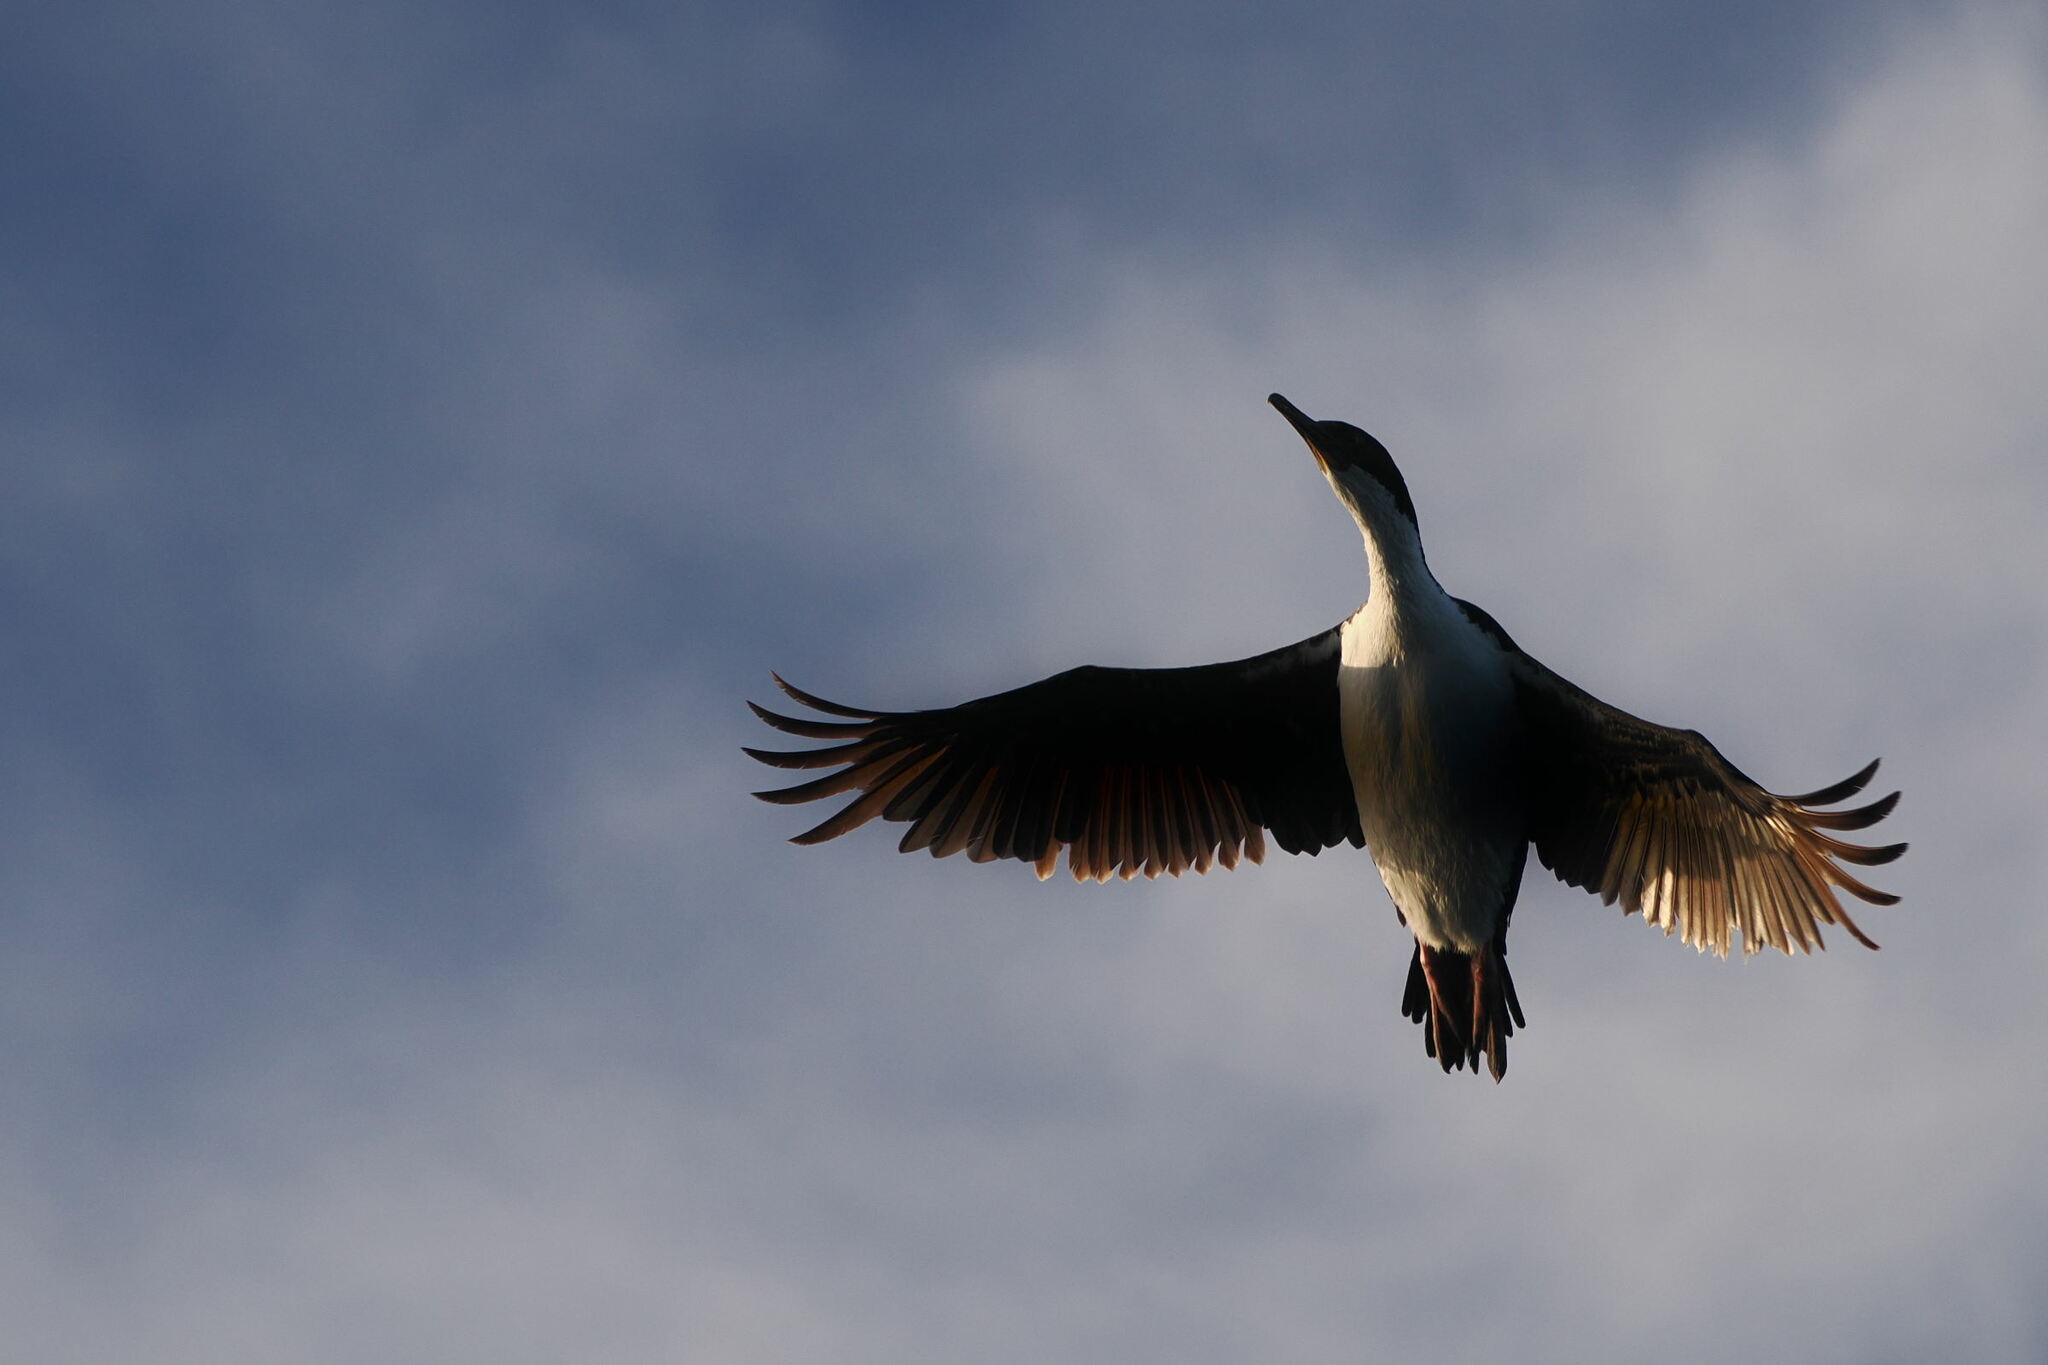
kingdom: Animalia
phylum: Chordata
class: Aves
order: Suliformes
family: Phalacrocoracidae
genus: Leucocarbo
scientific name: Leucocarbo albiventer
